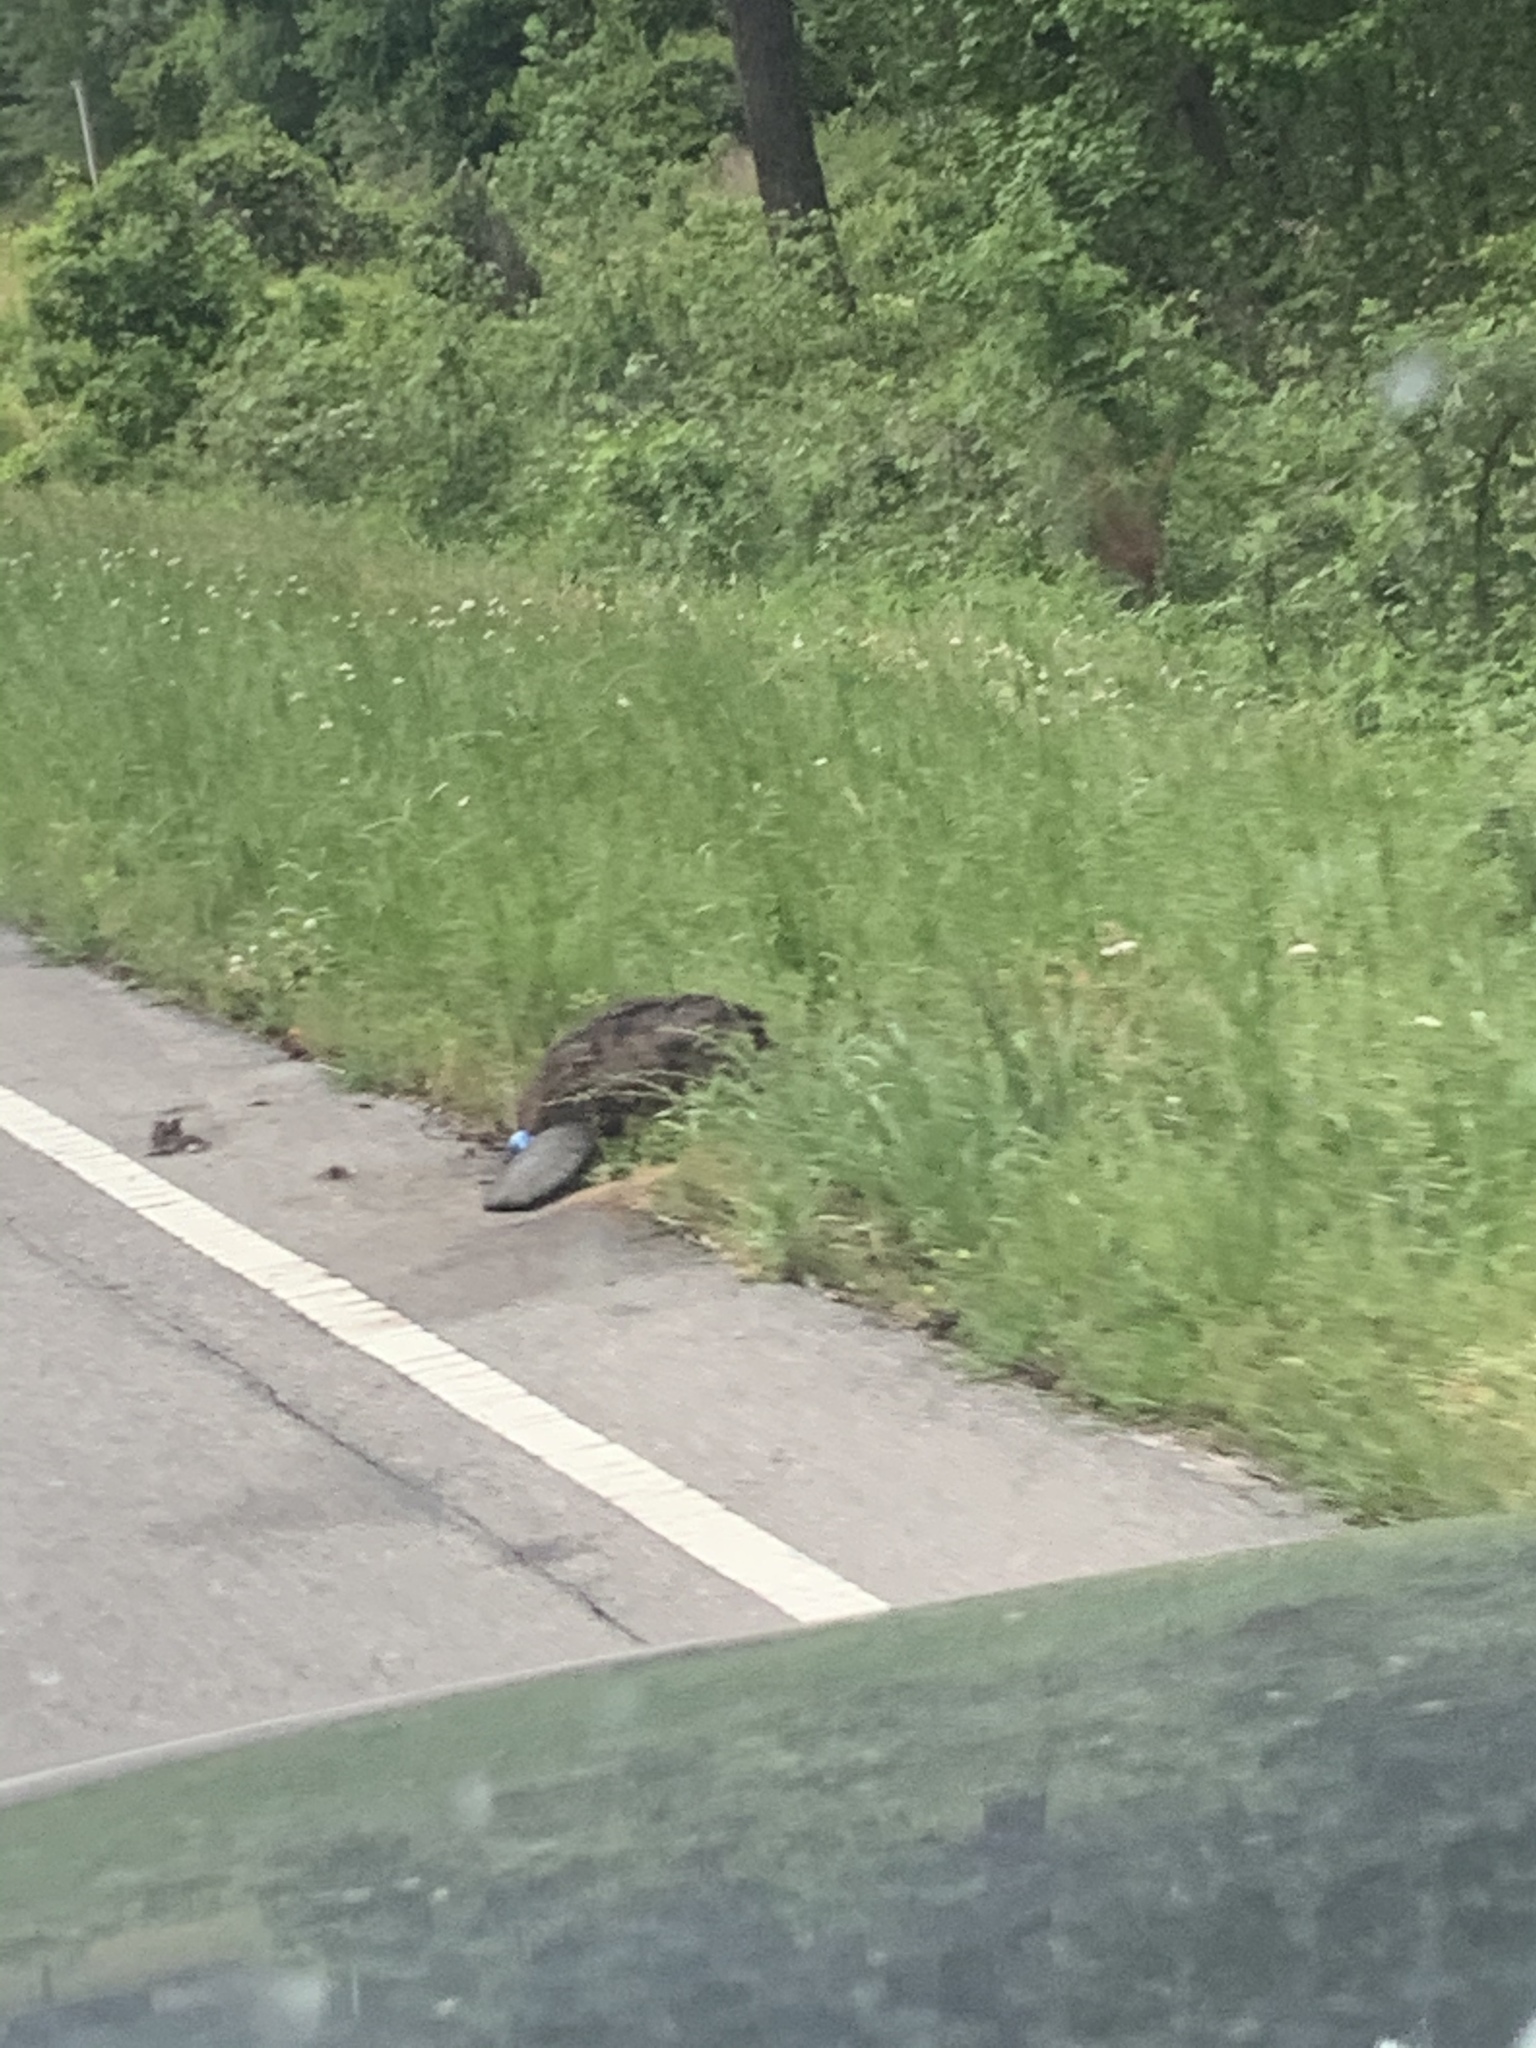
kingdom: Animalia
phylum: Chordata
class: Mammalia
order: Rodentia
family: Castoridae
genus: Castor
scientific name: Castor canadensis
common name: American beaver
